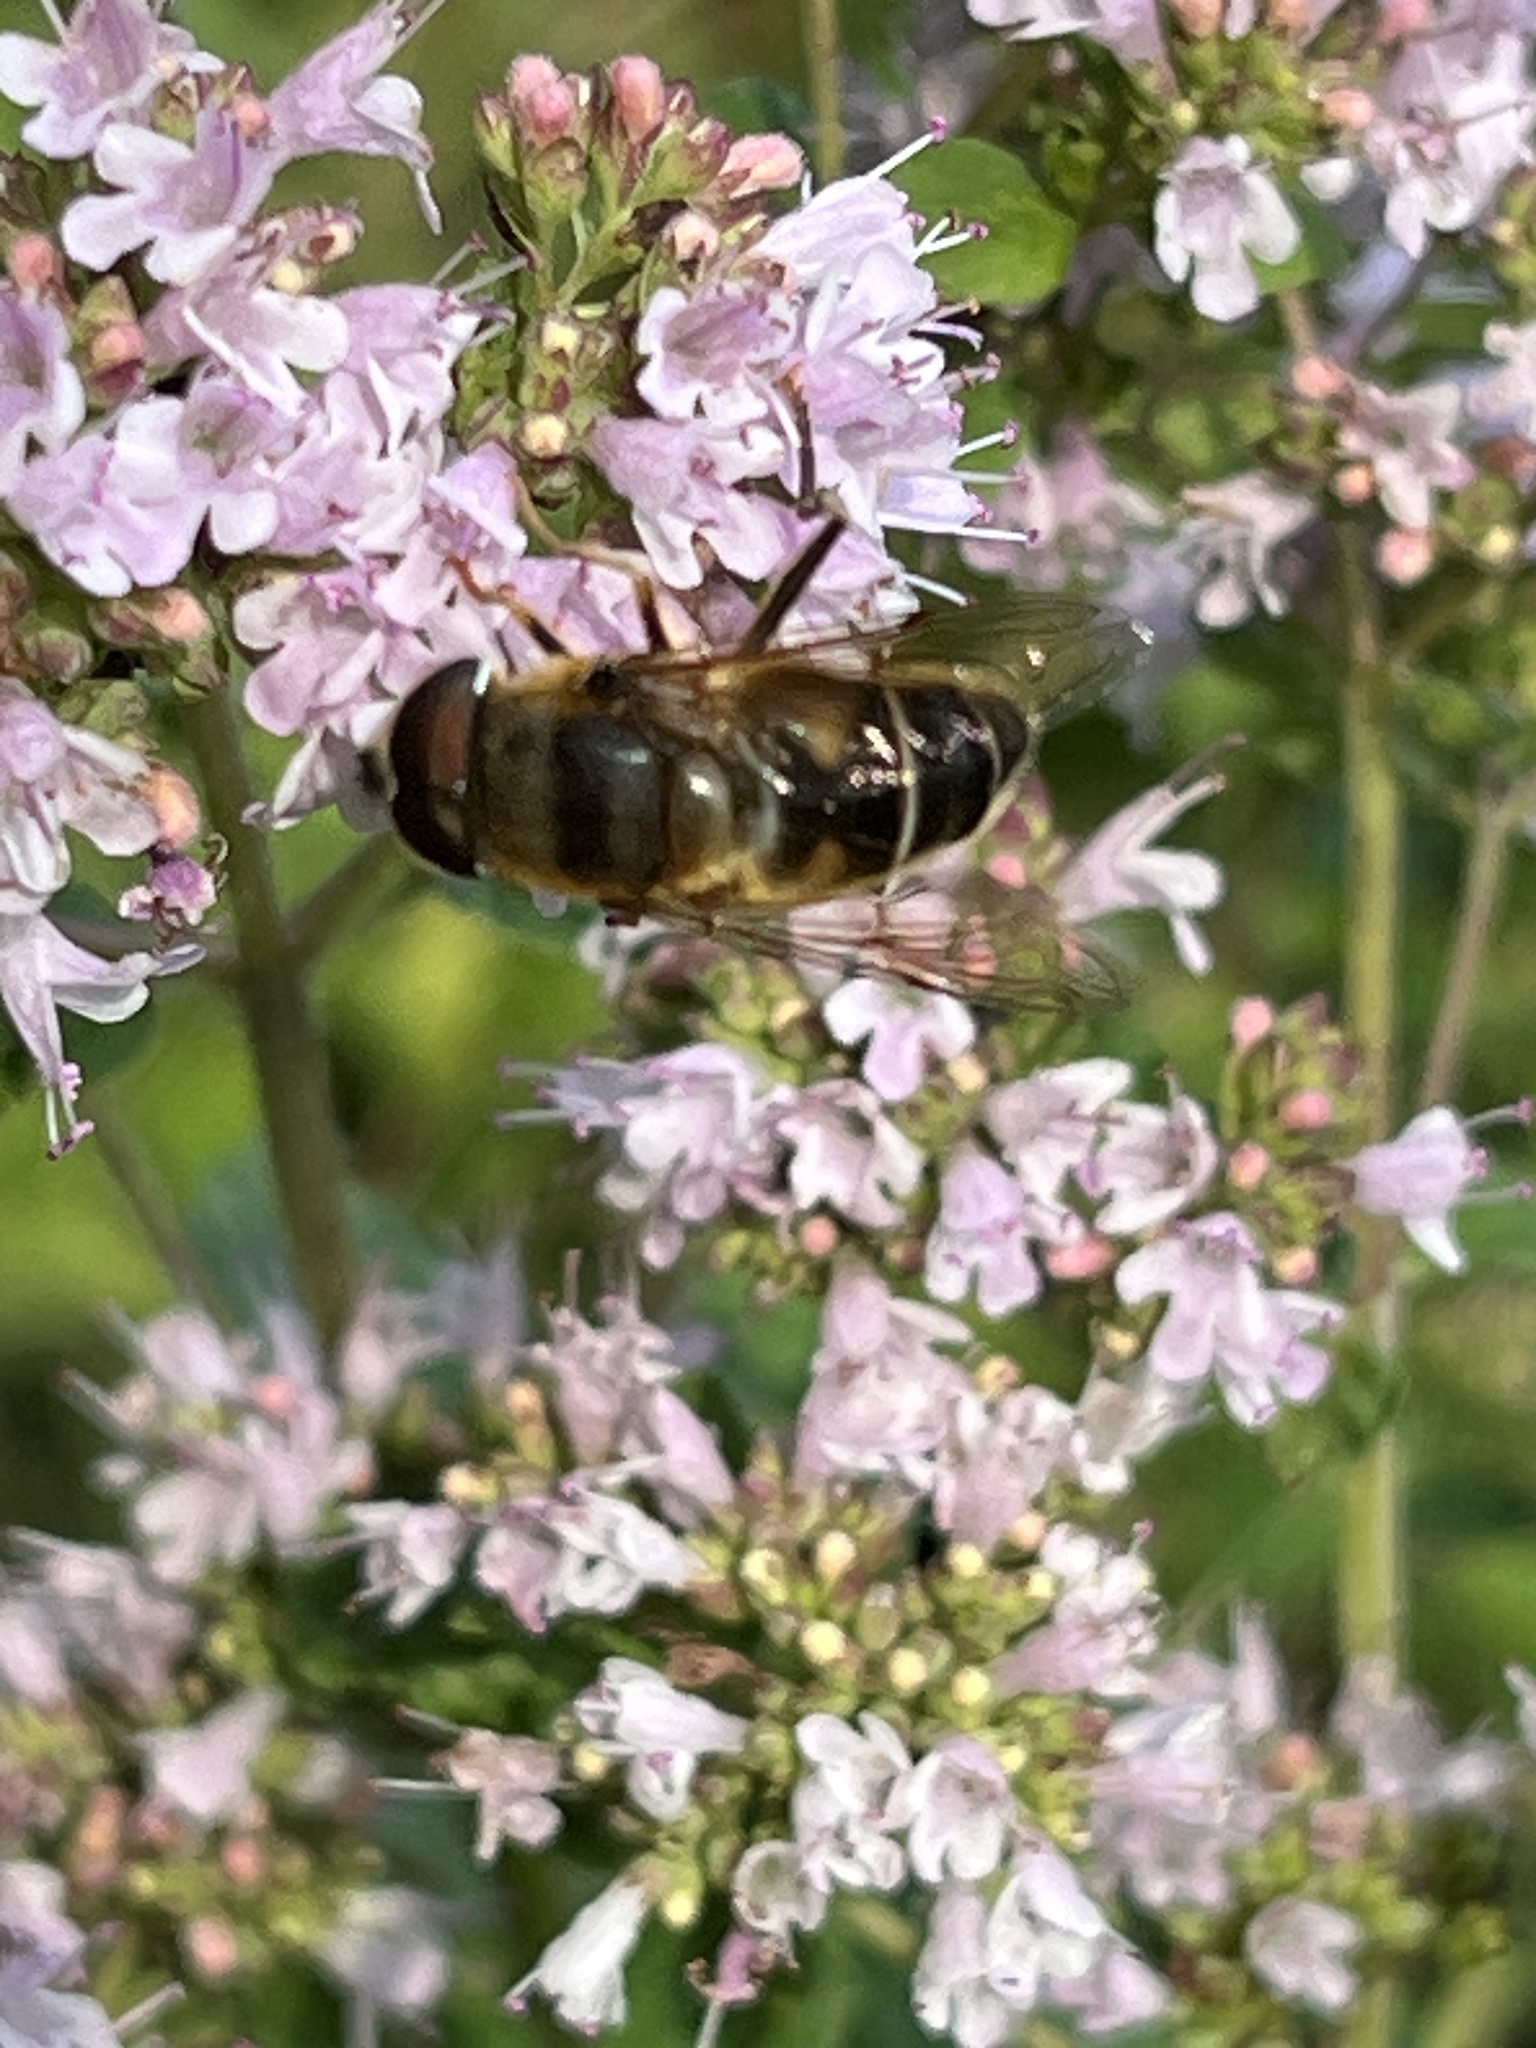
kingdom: Animalia
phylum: Arthropoda
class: Insecta
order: Diptera
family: Syrphidae
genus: Eristalis
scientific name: Eristalis pertinax
